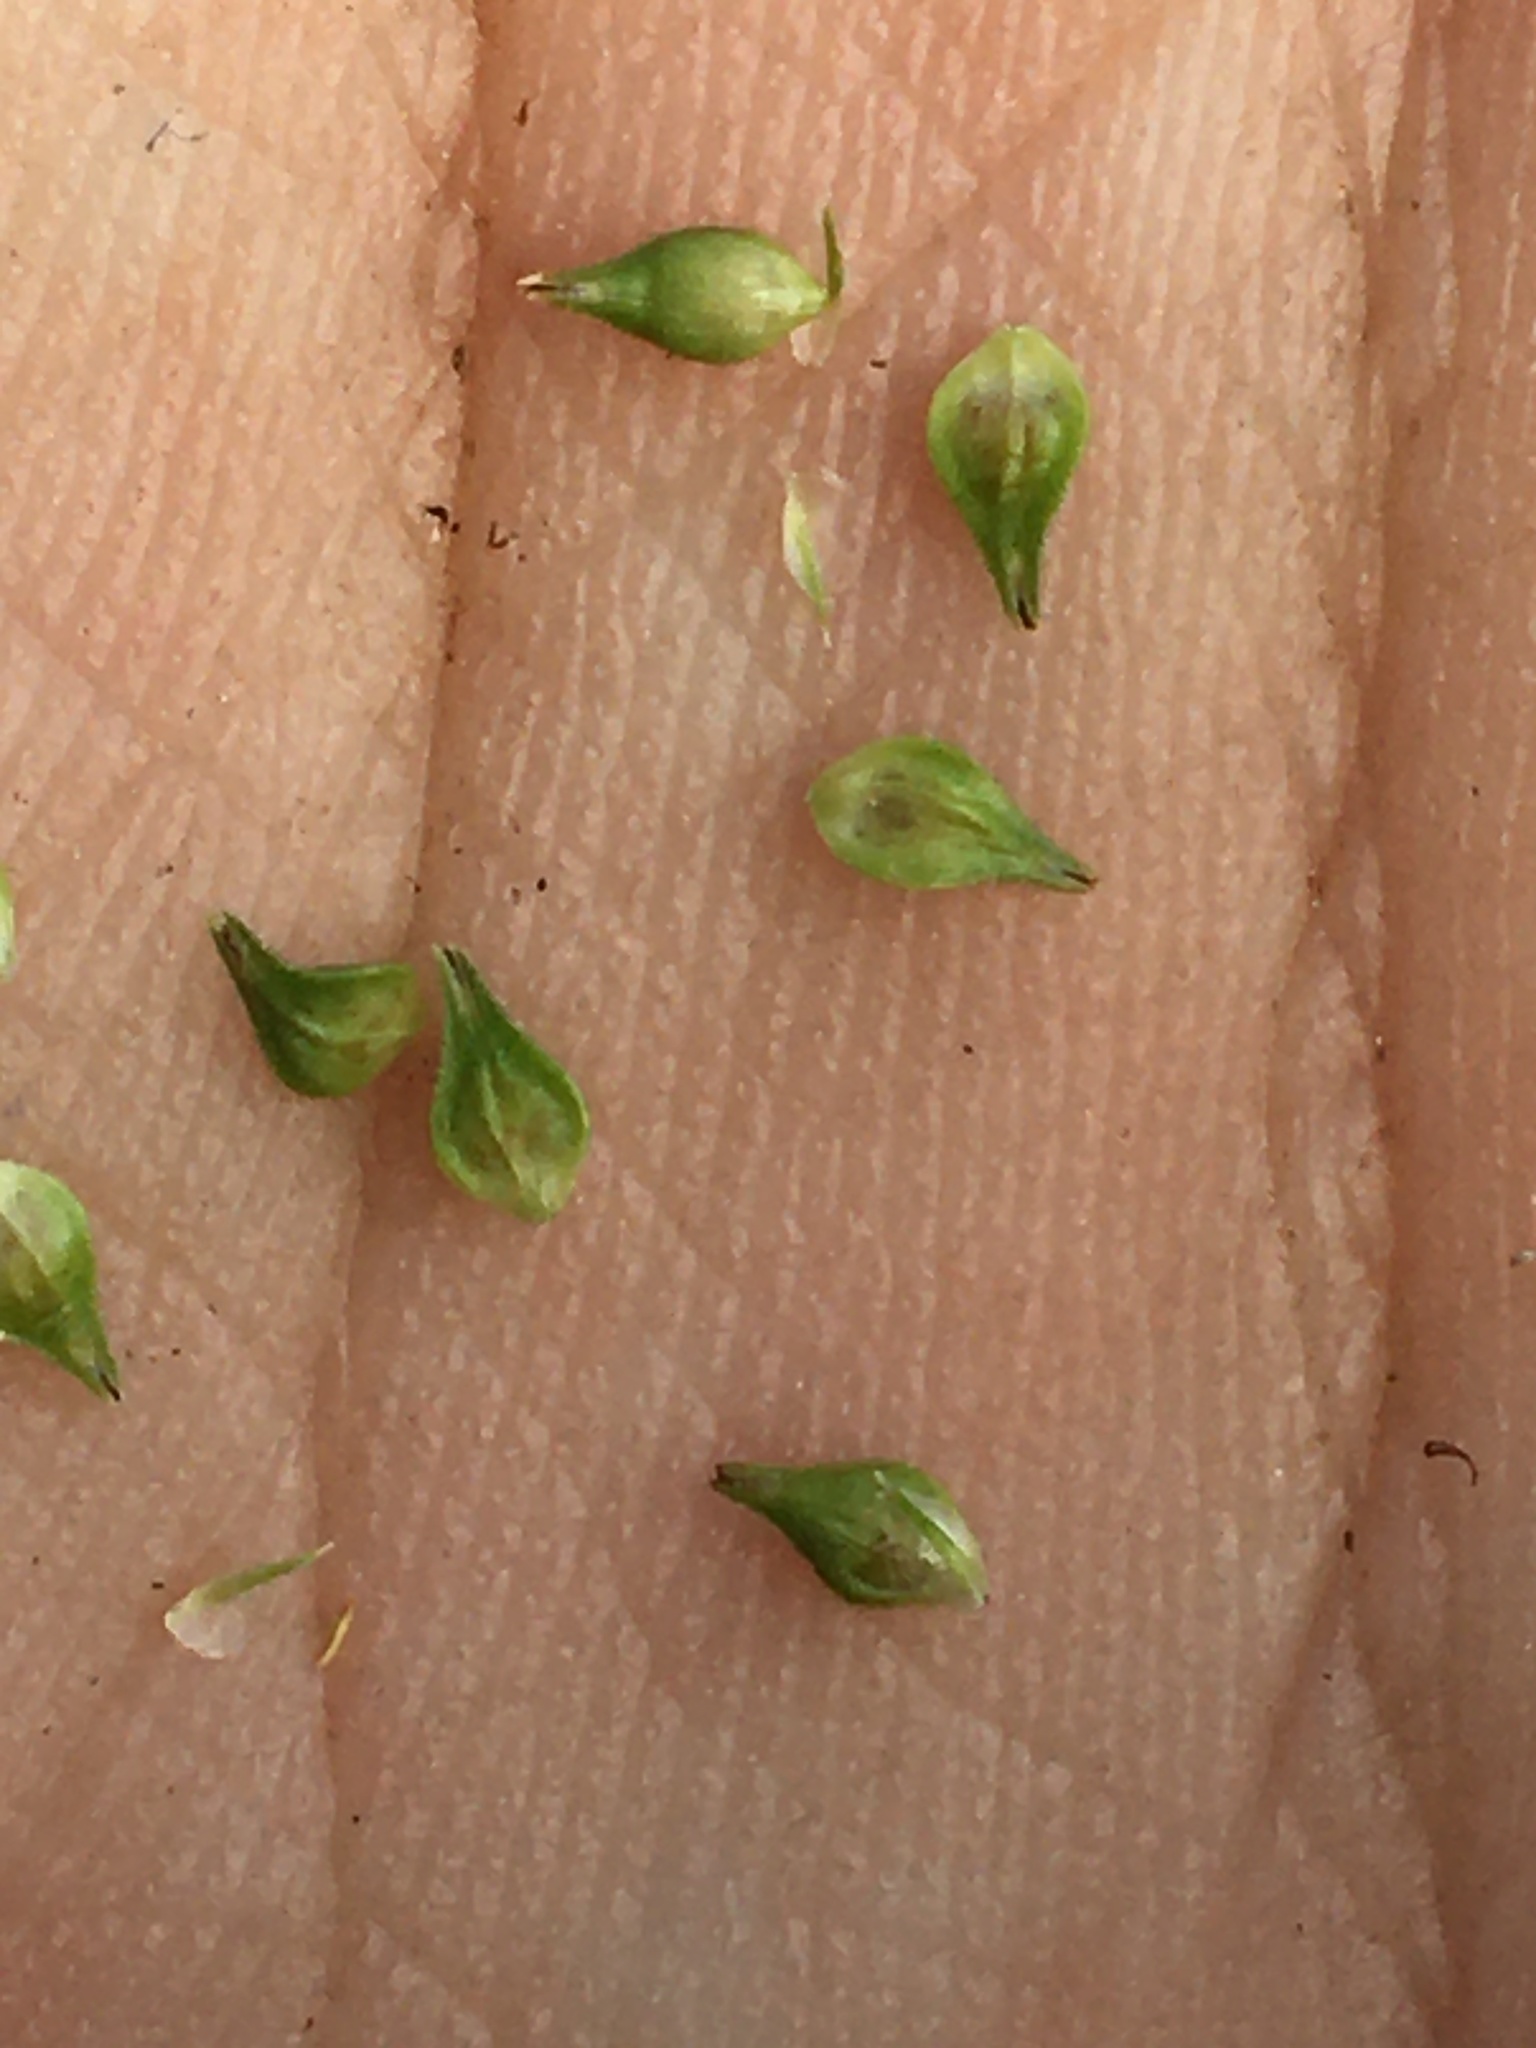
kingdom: Plantae
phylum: Tracheophyta
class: Liliopsida
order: Poales
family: Cyperaceae
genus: Carex
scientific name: Carex cephalophora
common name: Oval-headed sedge
